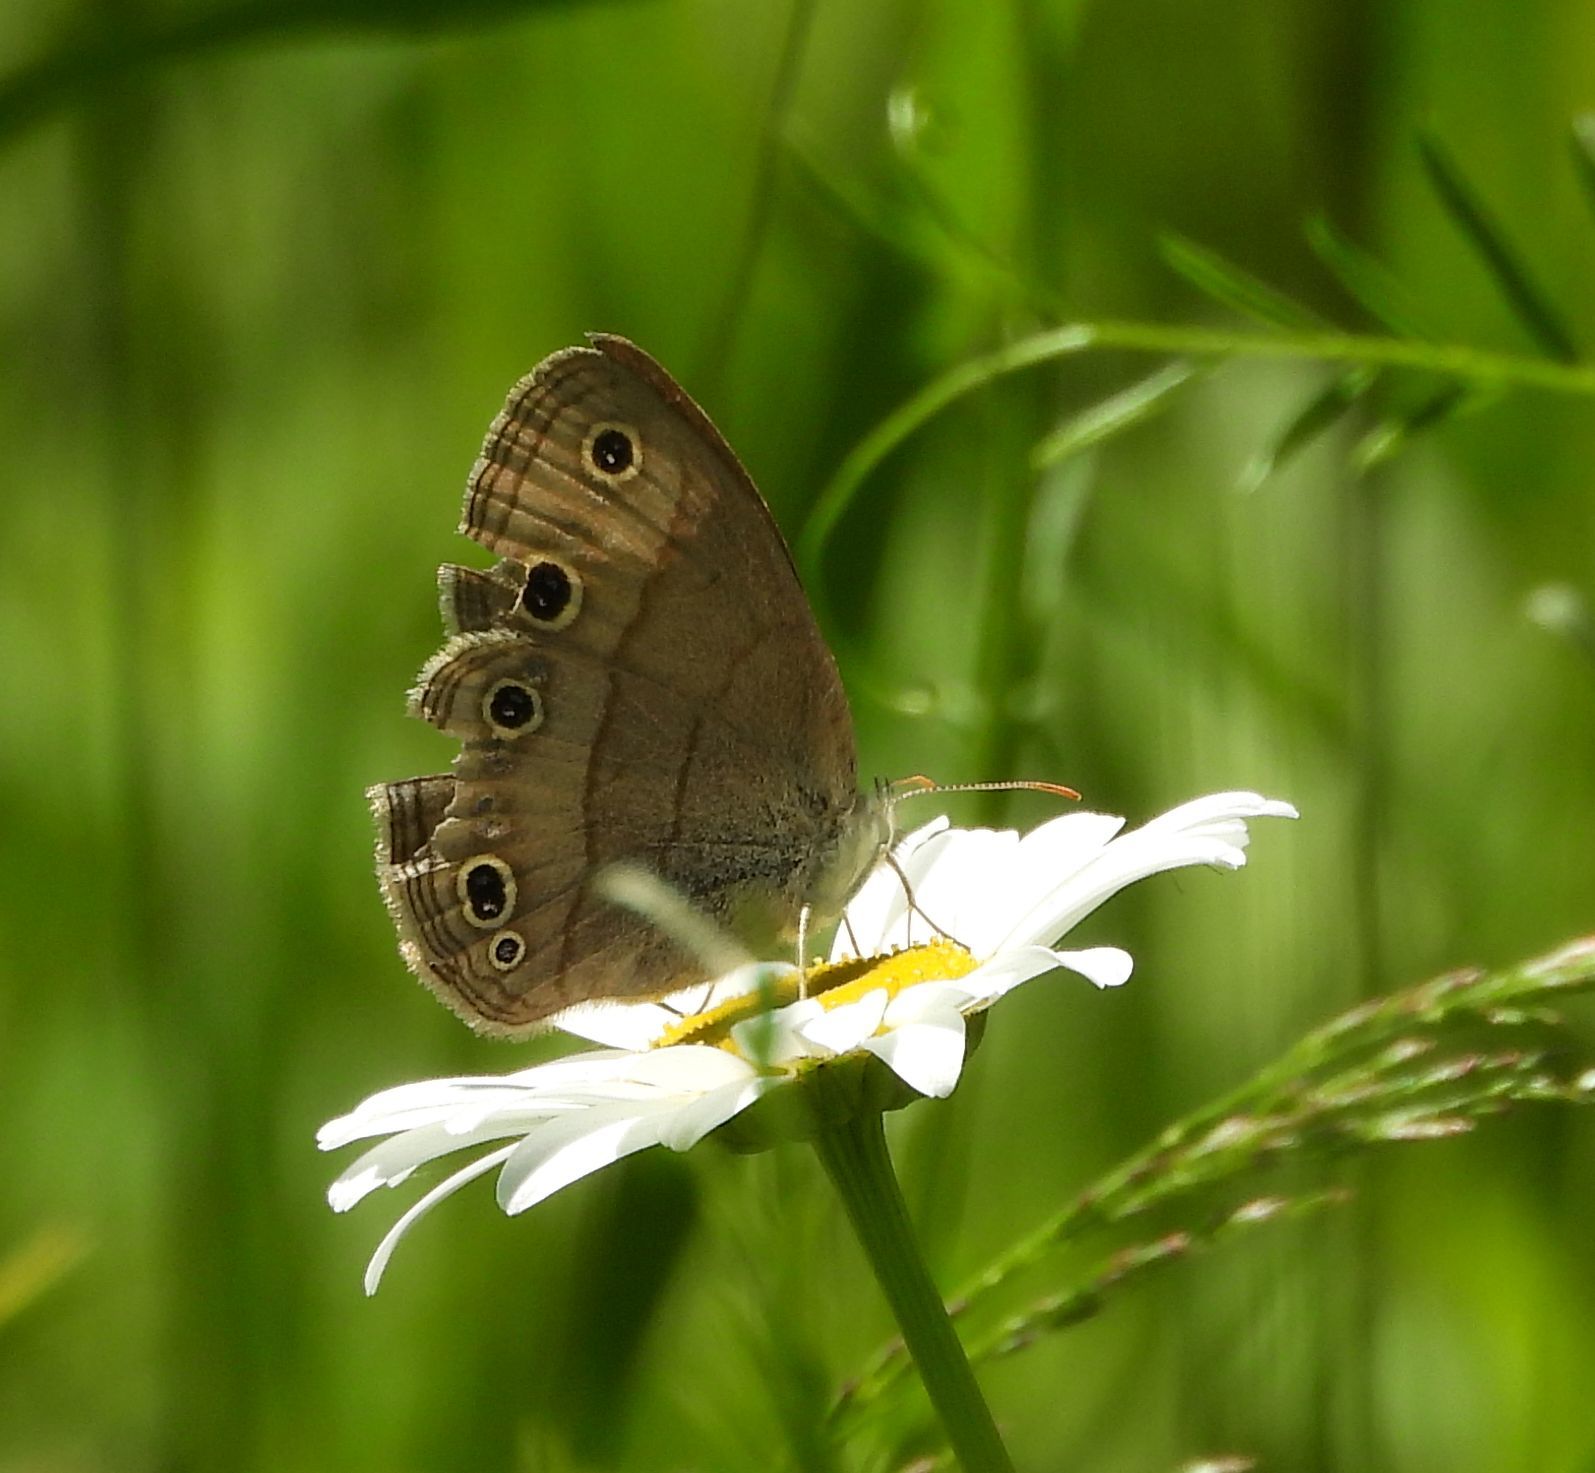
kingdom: Animalia
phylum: Arthropoda
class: Insecta
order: Lepidoptera
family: Nymphalidae
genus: Euptychia
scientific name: Euptychia cymela
